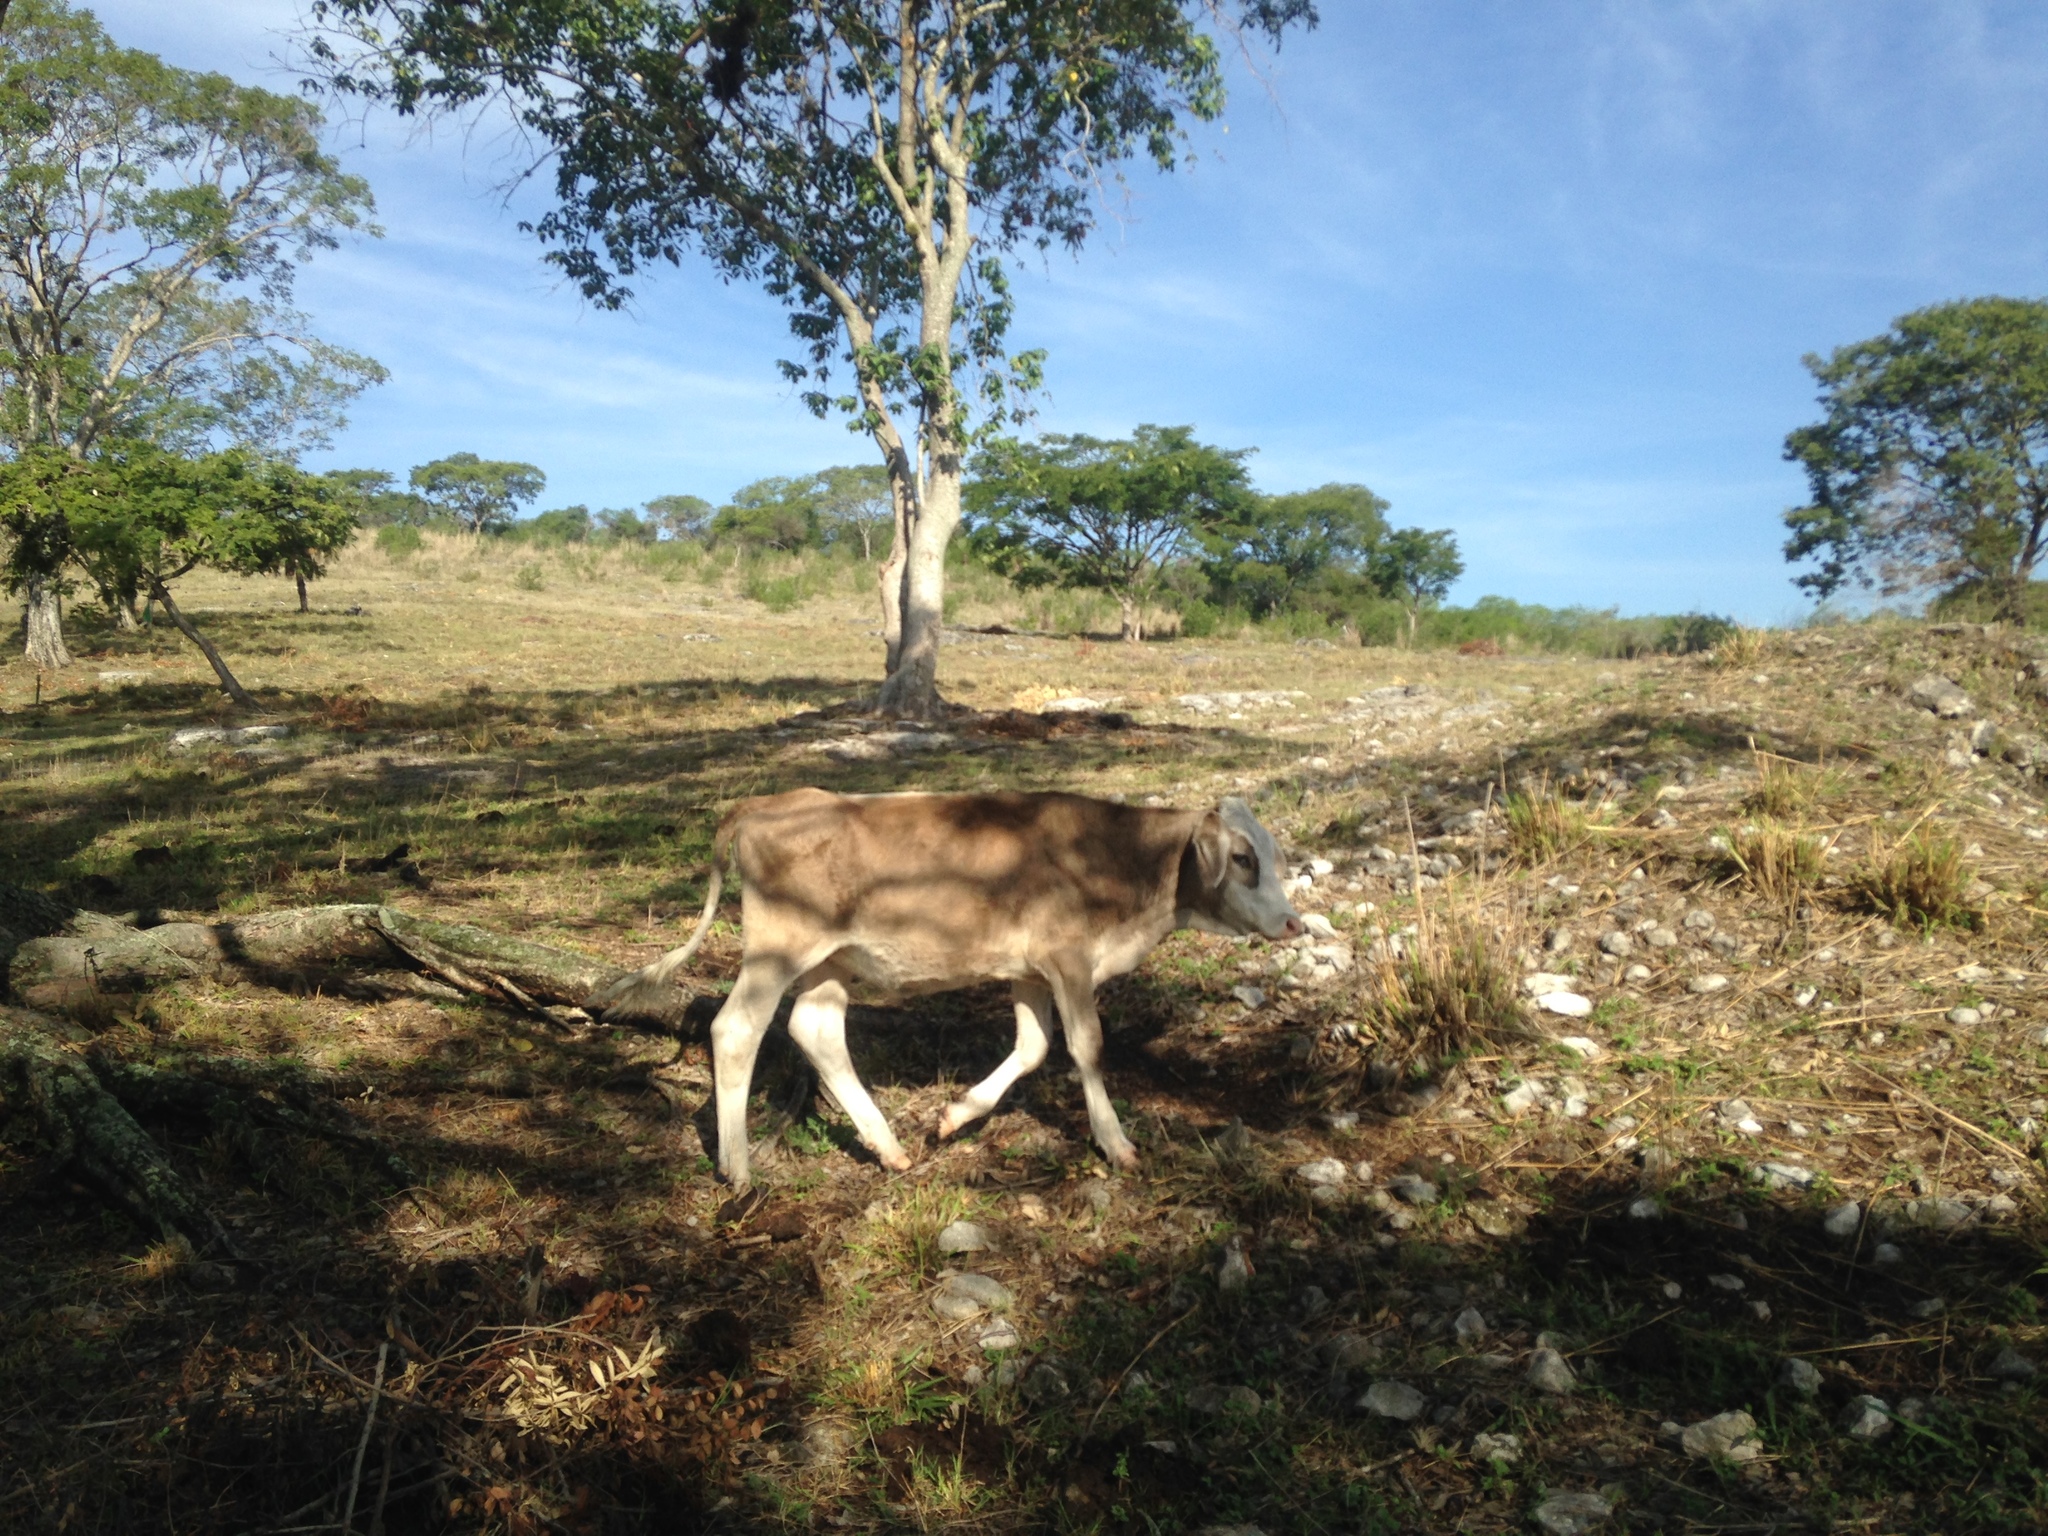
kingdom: Animalia
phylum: Chordata
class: Mammalia
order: Artiodactyla
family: Bovidae
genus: Bos
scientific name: Bos taurus
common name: Domesticated cattle
